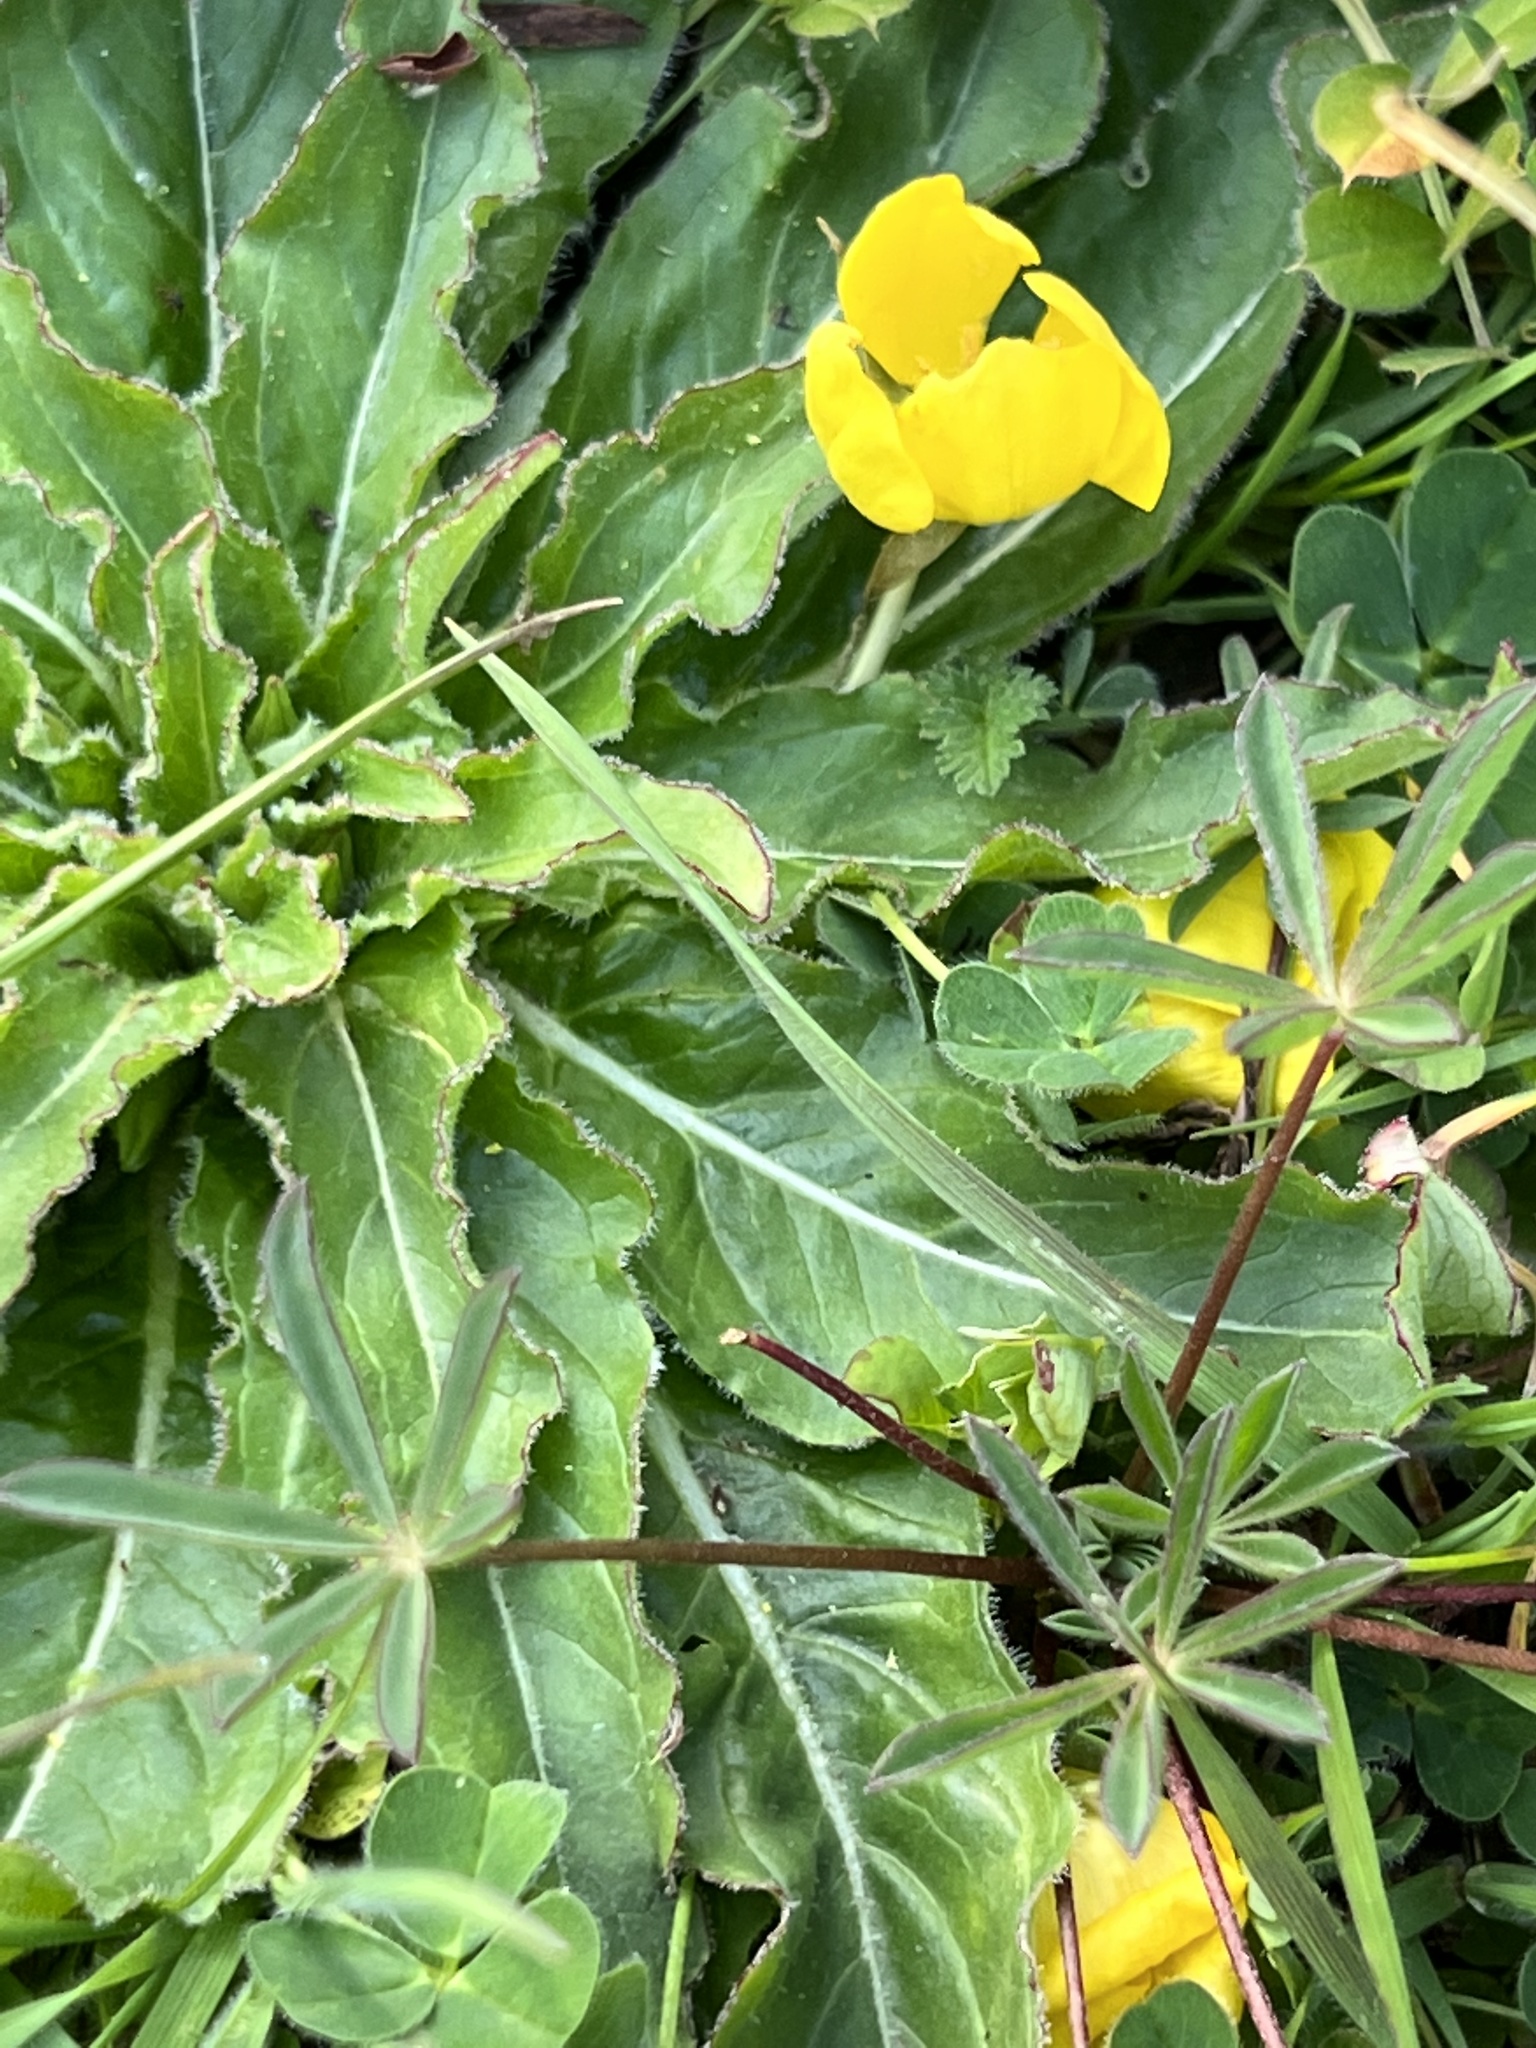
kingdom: Plantae
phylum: Tracheophyta
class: Magnoliopsida
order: Myrtales
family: Onagraceae
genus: Taraxia
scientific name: Taraxia ovata
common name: Goldeneggs
